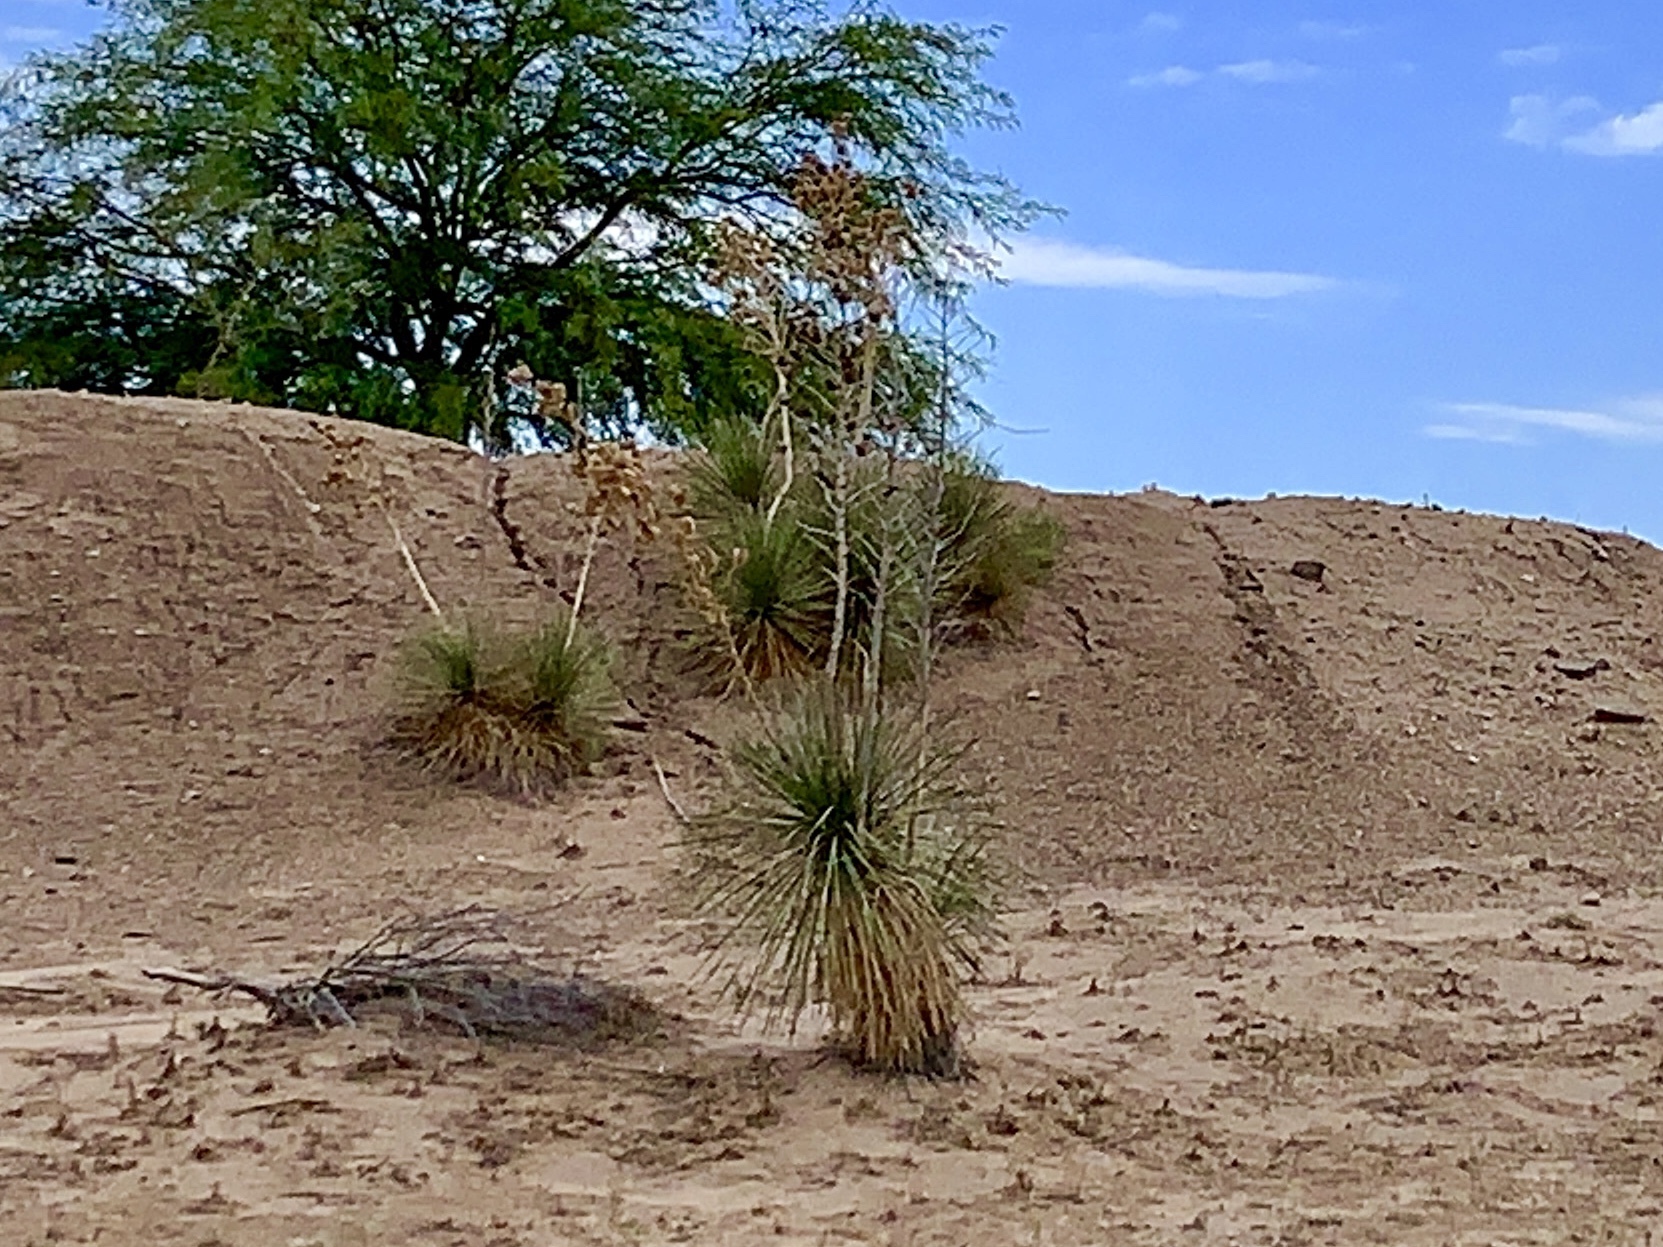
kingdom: Plantae
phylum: Tracheophyta
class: Liliopsida
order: Asparagales
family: Asparagaceae
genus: Yucca
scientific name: Yucca elata
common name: Palmella
